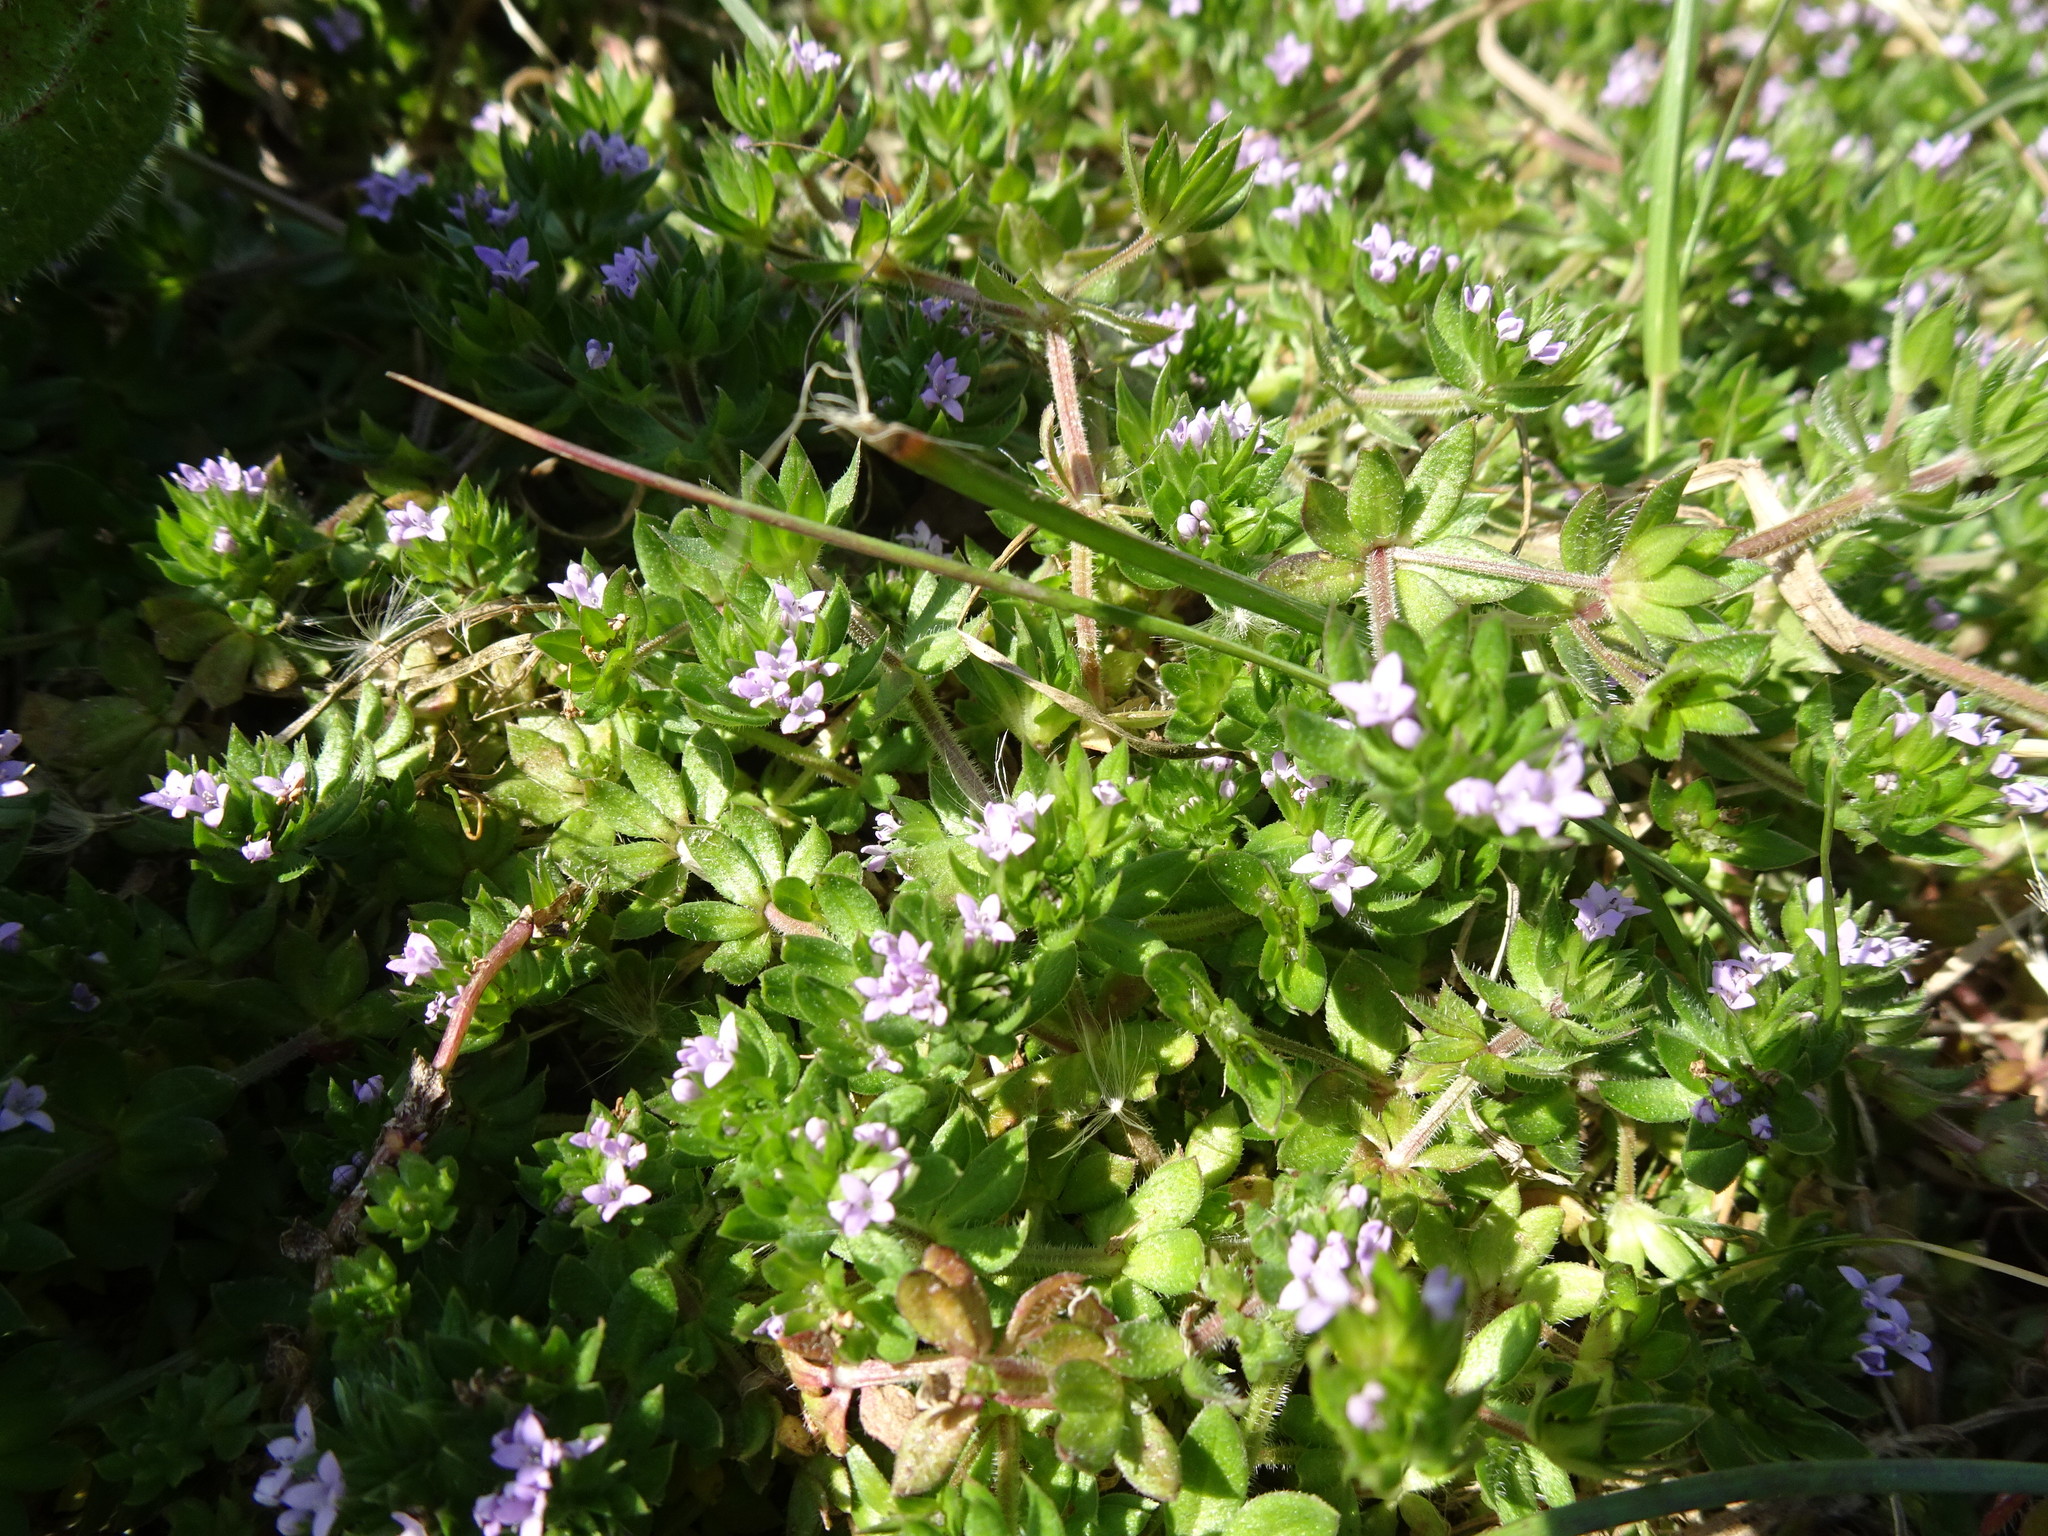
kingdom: Plantae
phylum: Tracheophyta
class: Magnoliopsida
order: Gentianales
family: Rubiaceae
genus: Sherardia
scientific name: Sherardia arvensis
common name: Field madder
